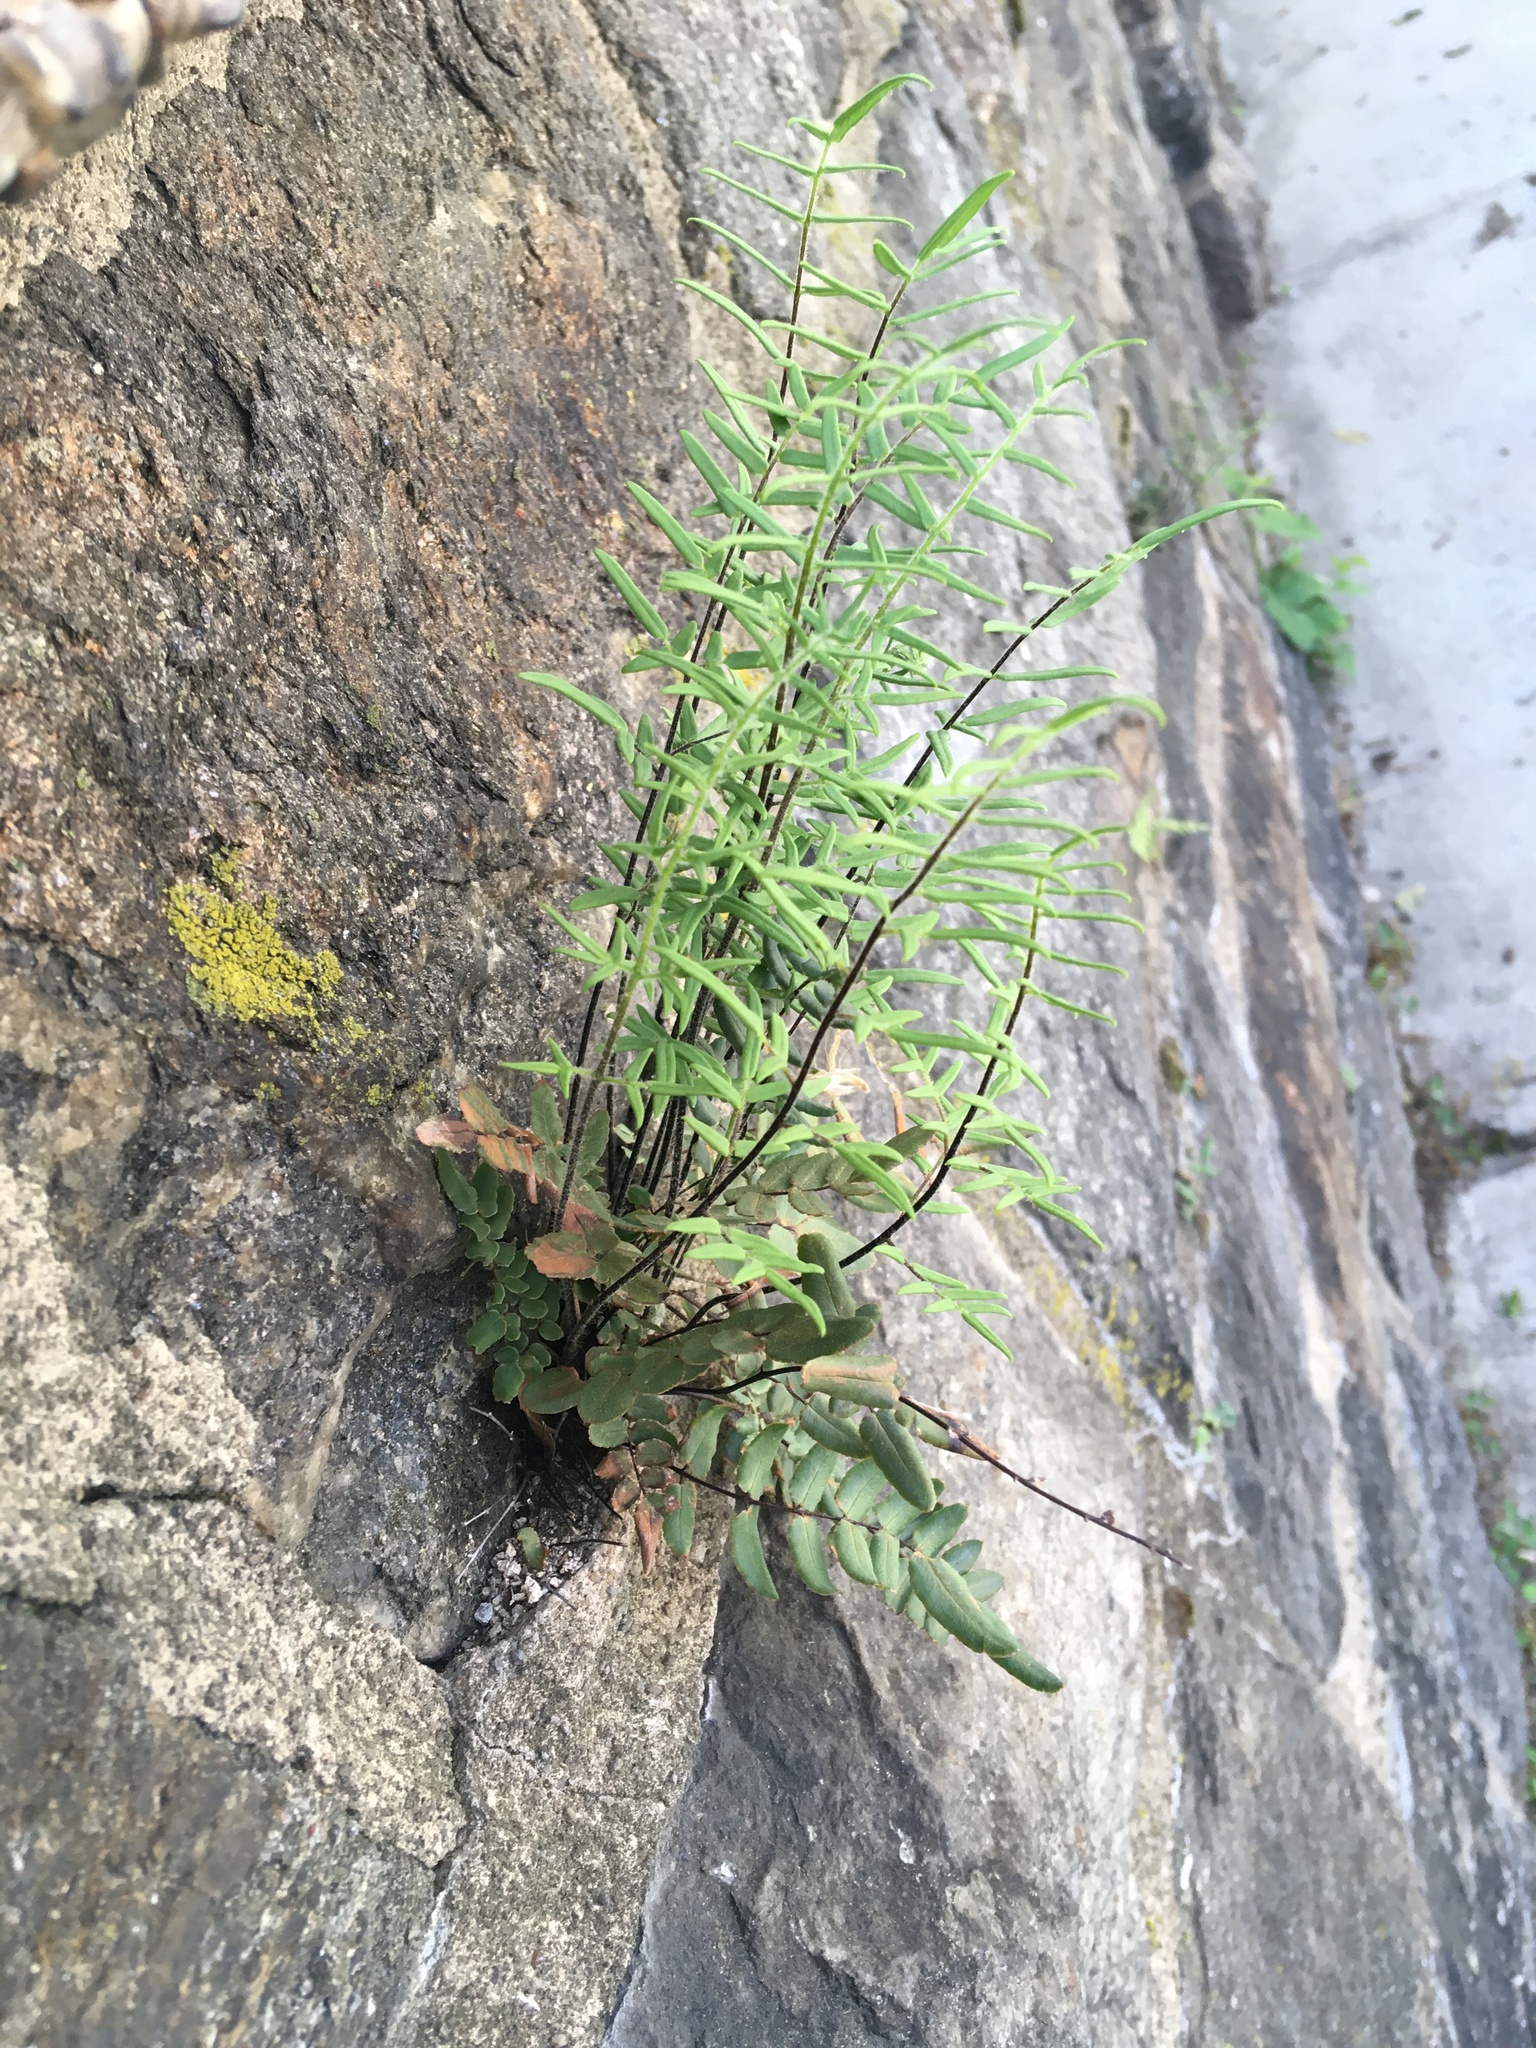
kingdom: Plantae
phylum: Tracheophyta
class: Polypodiopsida
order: Polypodiales
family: Pteridaceae
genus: Pellaea
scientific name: Pellaea atropurpurea
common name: Hairy cliffbrake
